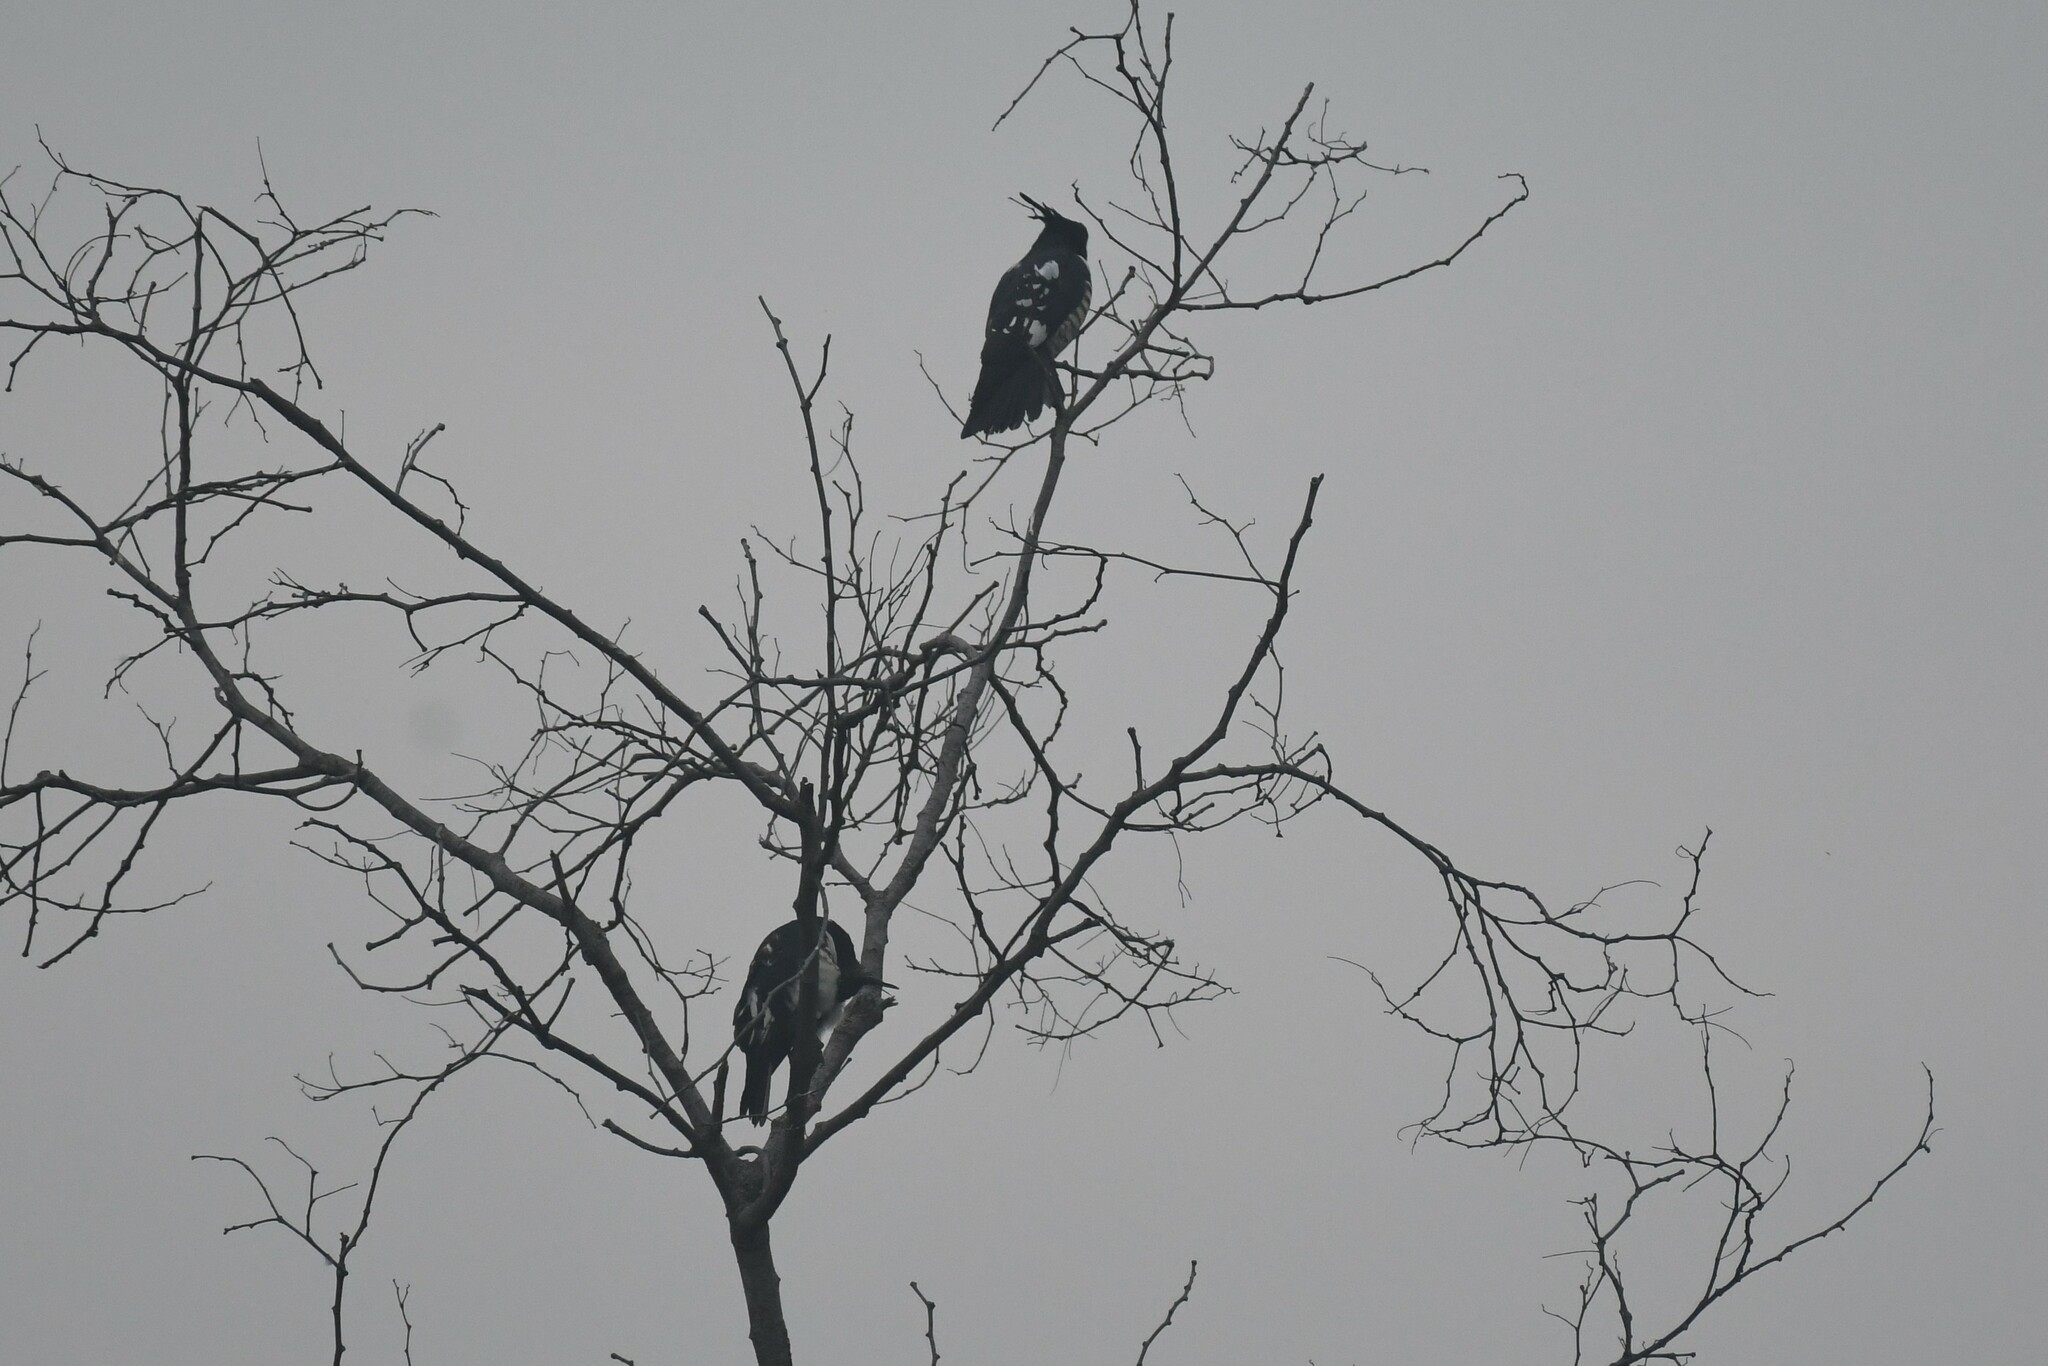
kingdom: Animalia
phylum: Chordata
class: Aves
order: Accipitriformes
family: Accipitridae
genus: Aviceda
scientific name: Aviceda leuphotes
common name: Black baza
